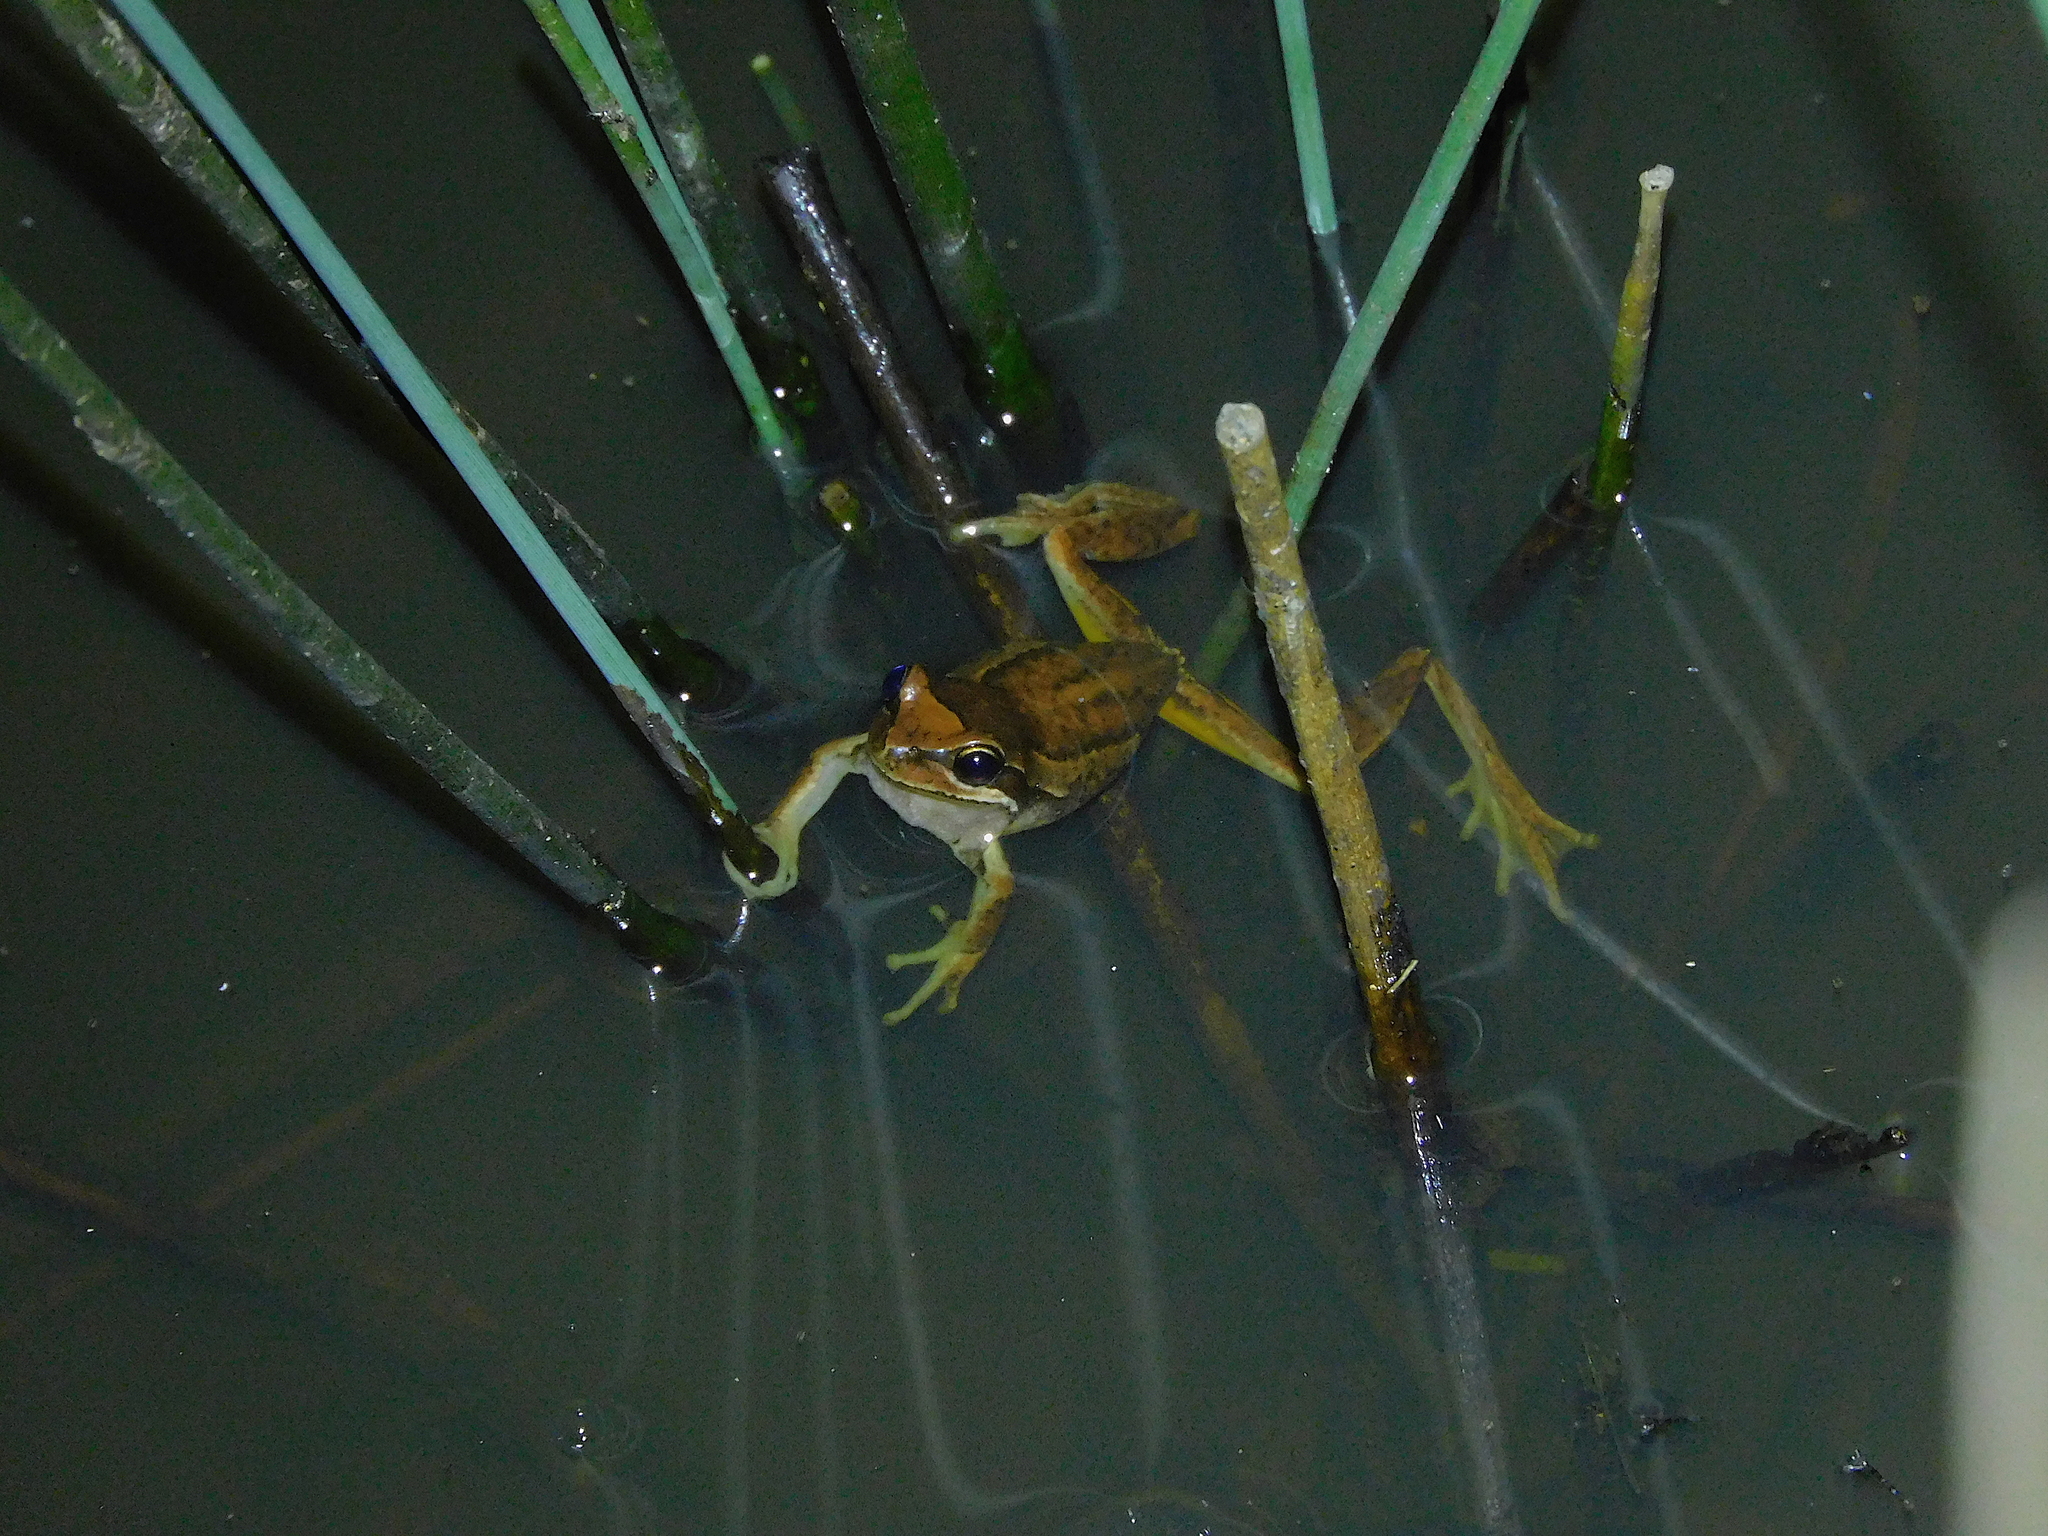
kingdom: Animalia
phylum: Chordata
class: Amphibia
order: Anura
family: Pelodryadidae
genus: Litoria
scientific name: Litoria ewingii
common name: Southern brown tree frog
